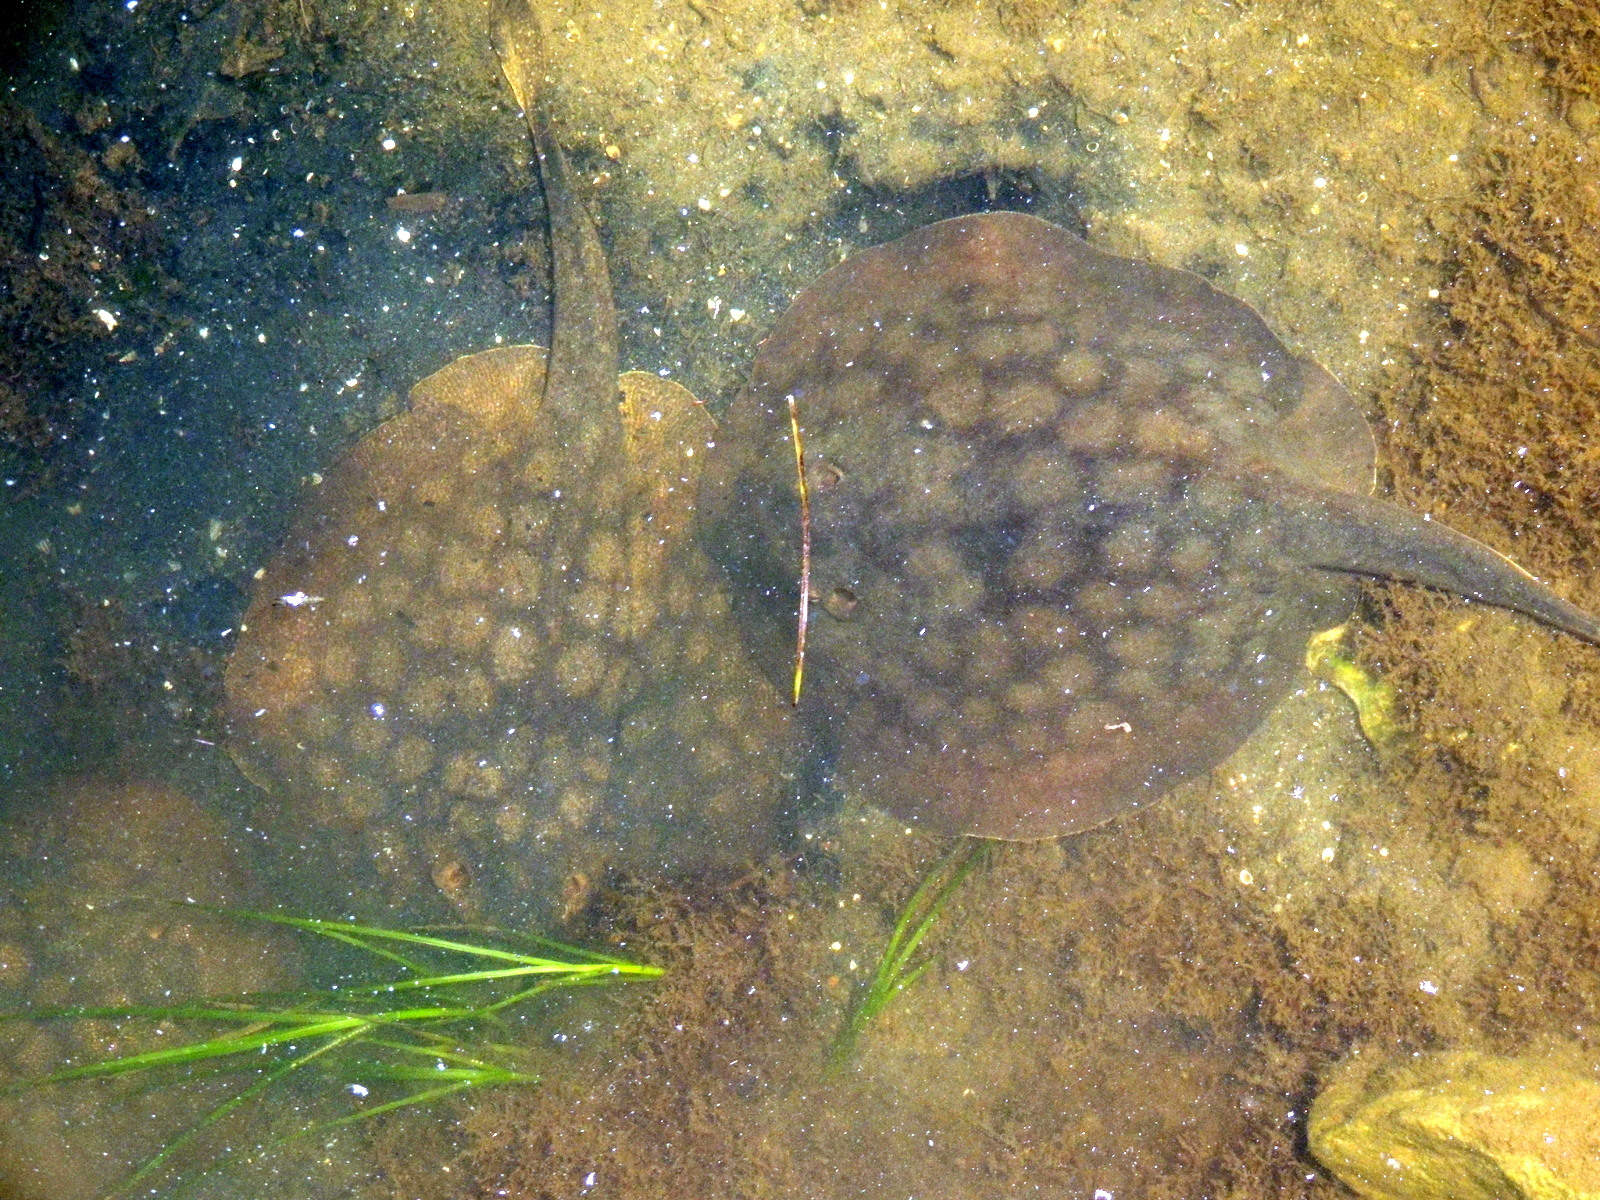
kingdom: Animalia
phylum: Chordata
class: Elasmobranchii
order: Myliobatiformes
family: Urolophidae
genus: Urolophus
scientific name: Urolophus halleri
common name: Round stingray
